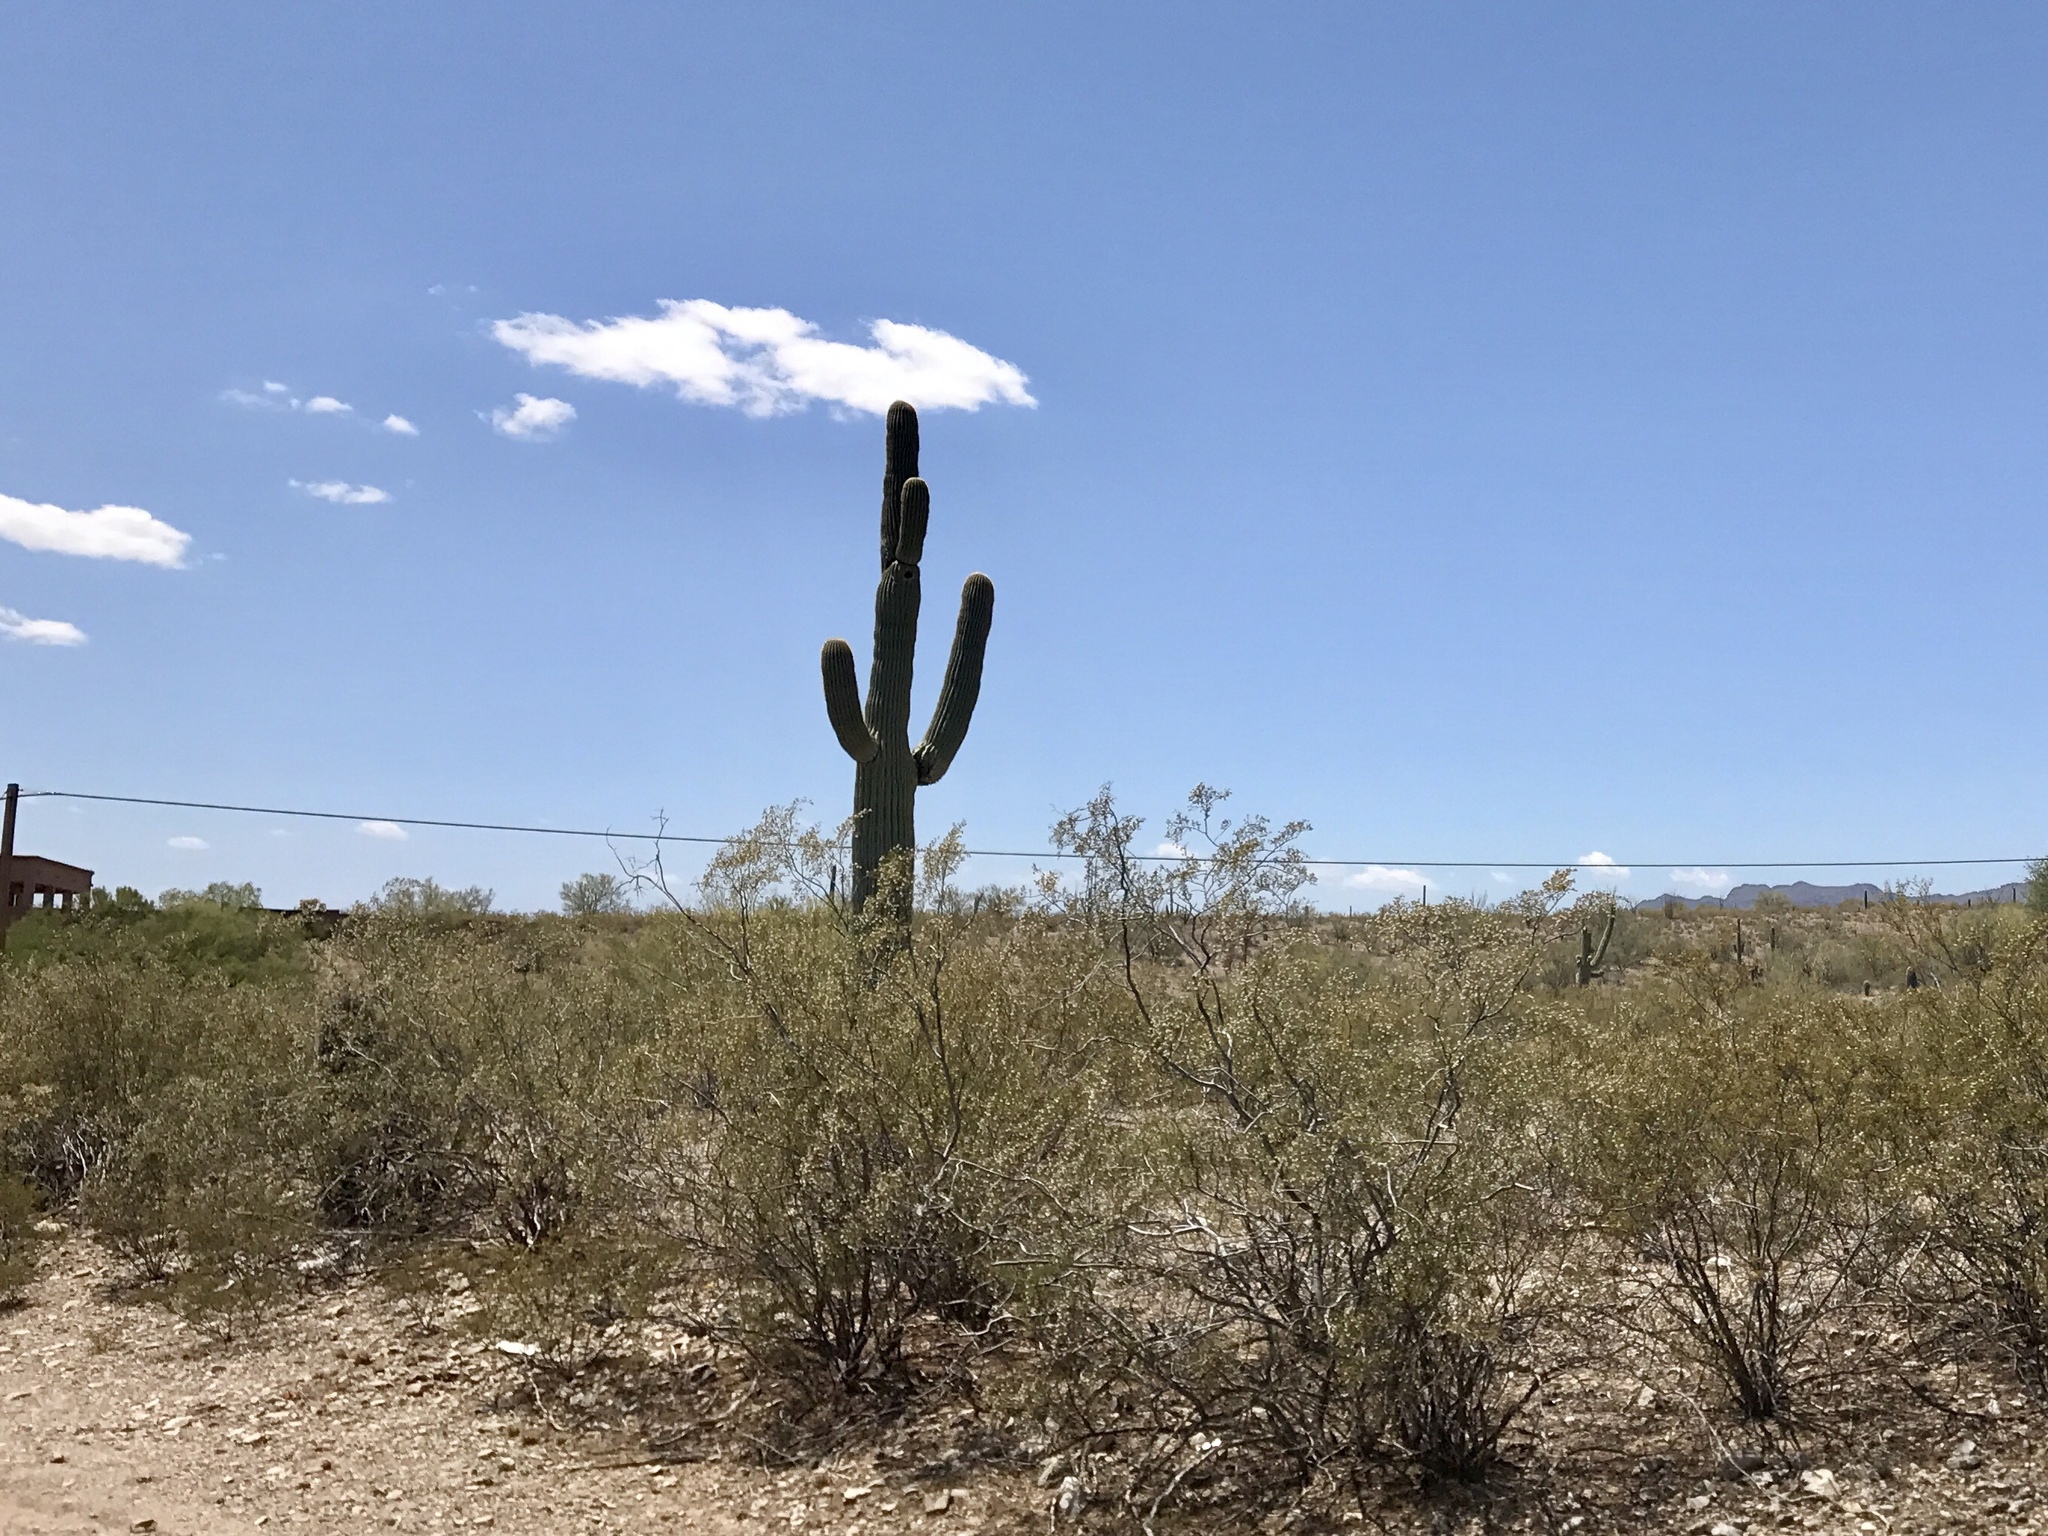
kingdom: Plantae
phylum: Tracheophyta
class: Magnoliopsida
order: Caryophyllales
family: Cactaceae
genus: Carnegiea
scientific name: Carnegiea gigantea
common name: Saguaro
